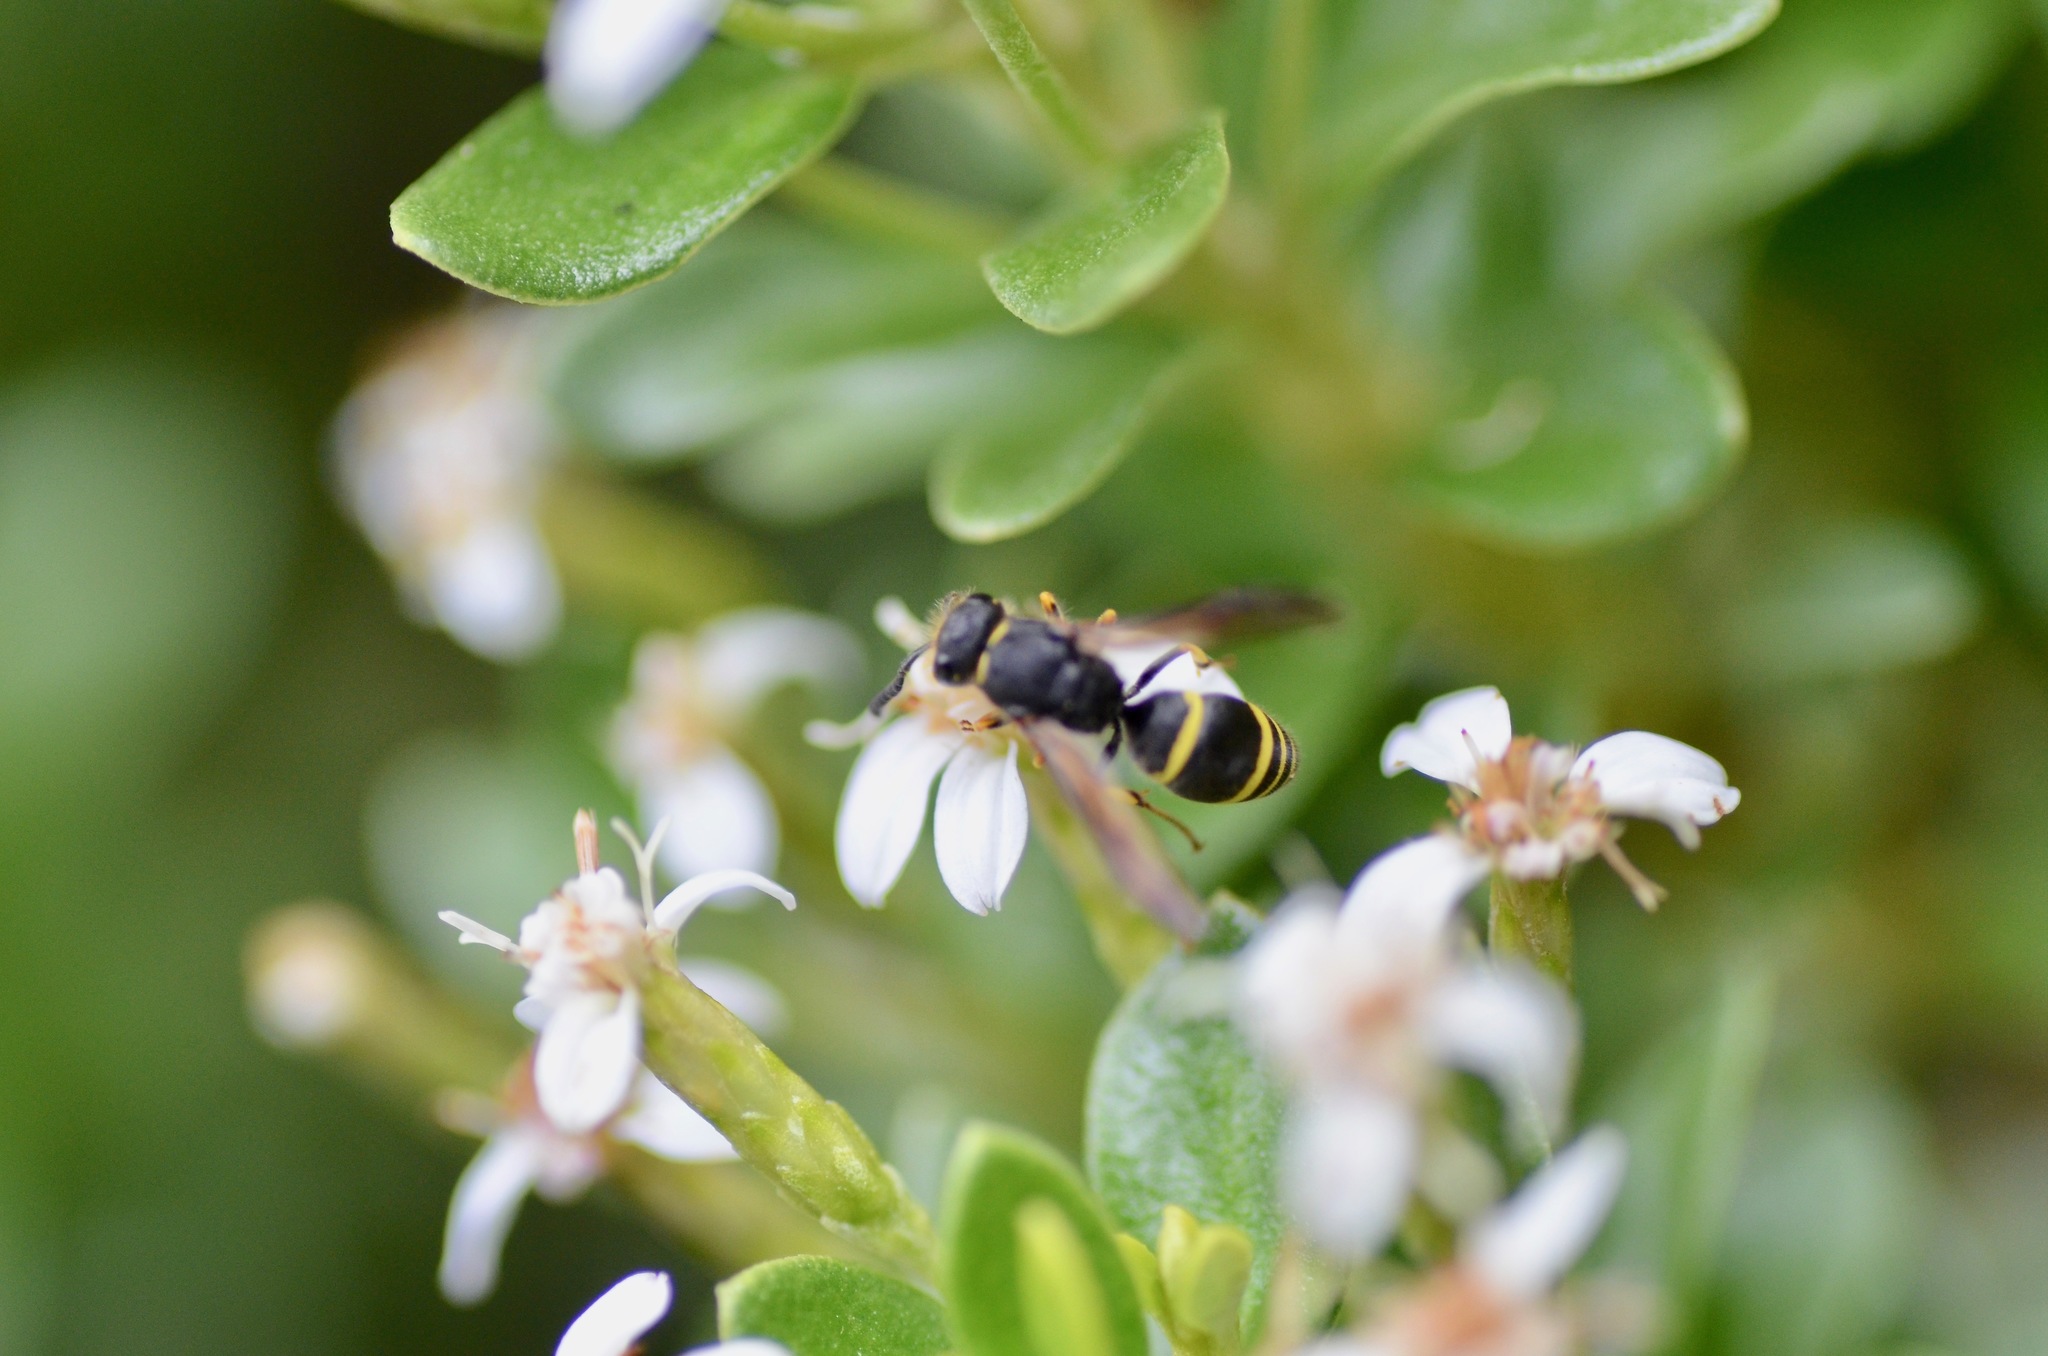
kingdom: Animalia
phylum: Arthropoda
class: Insecta
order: Hymenoptera
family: Vespidae
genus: Ancistrocerus
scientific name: Ancistrocerus gazella
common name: European tube wasp
